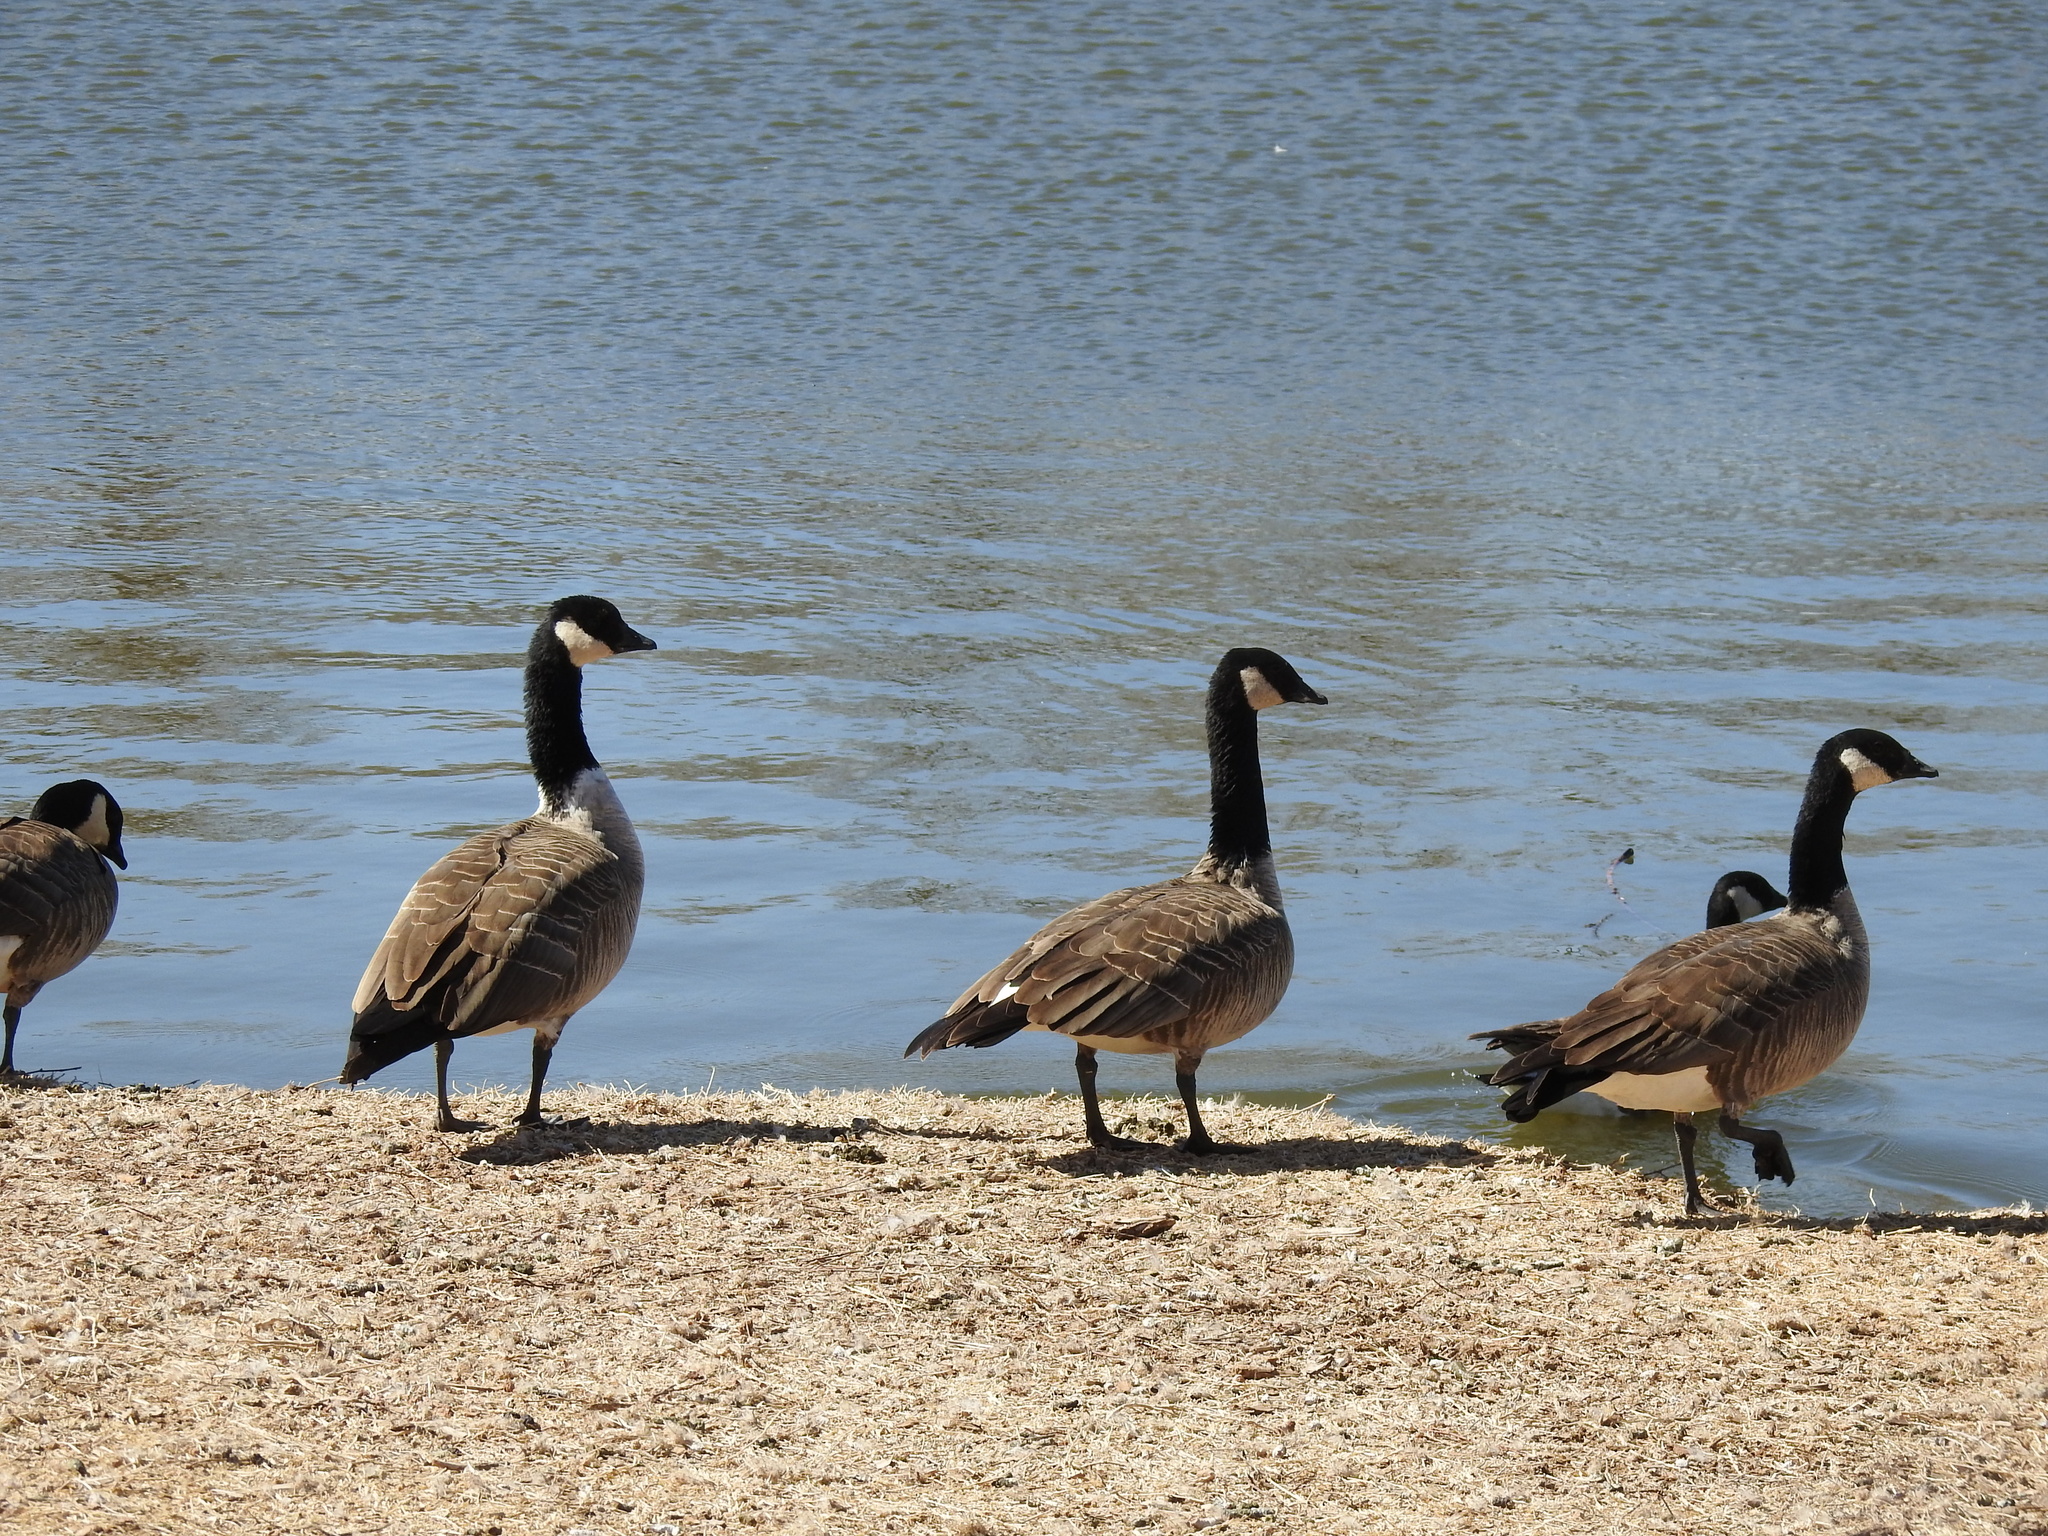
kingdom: Animalia
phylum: Chordata
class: Aves
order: Anseriformes
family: Anatidae
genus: Branta
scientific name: Branta hutchinsii
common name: Cackling goose
